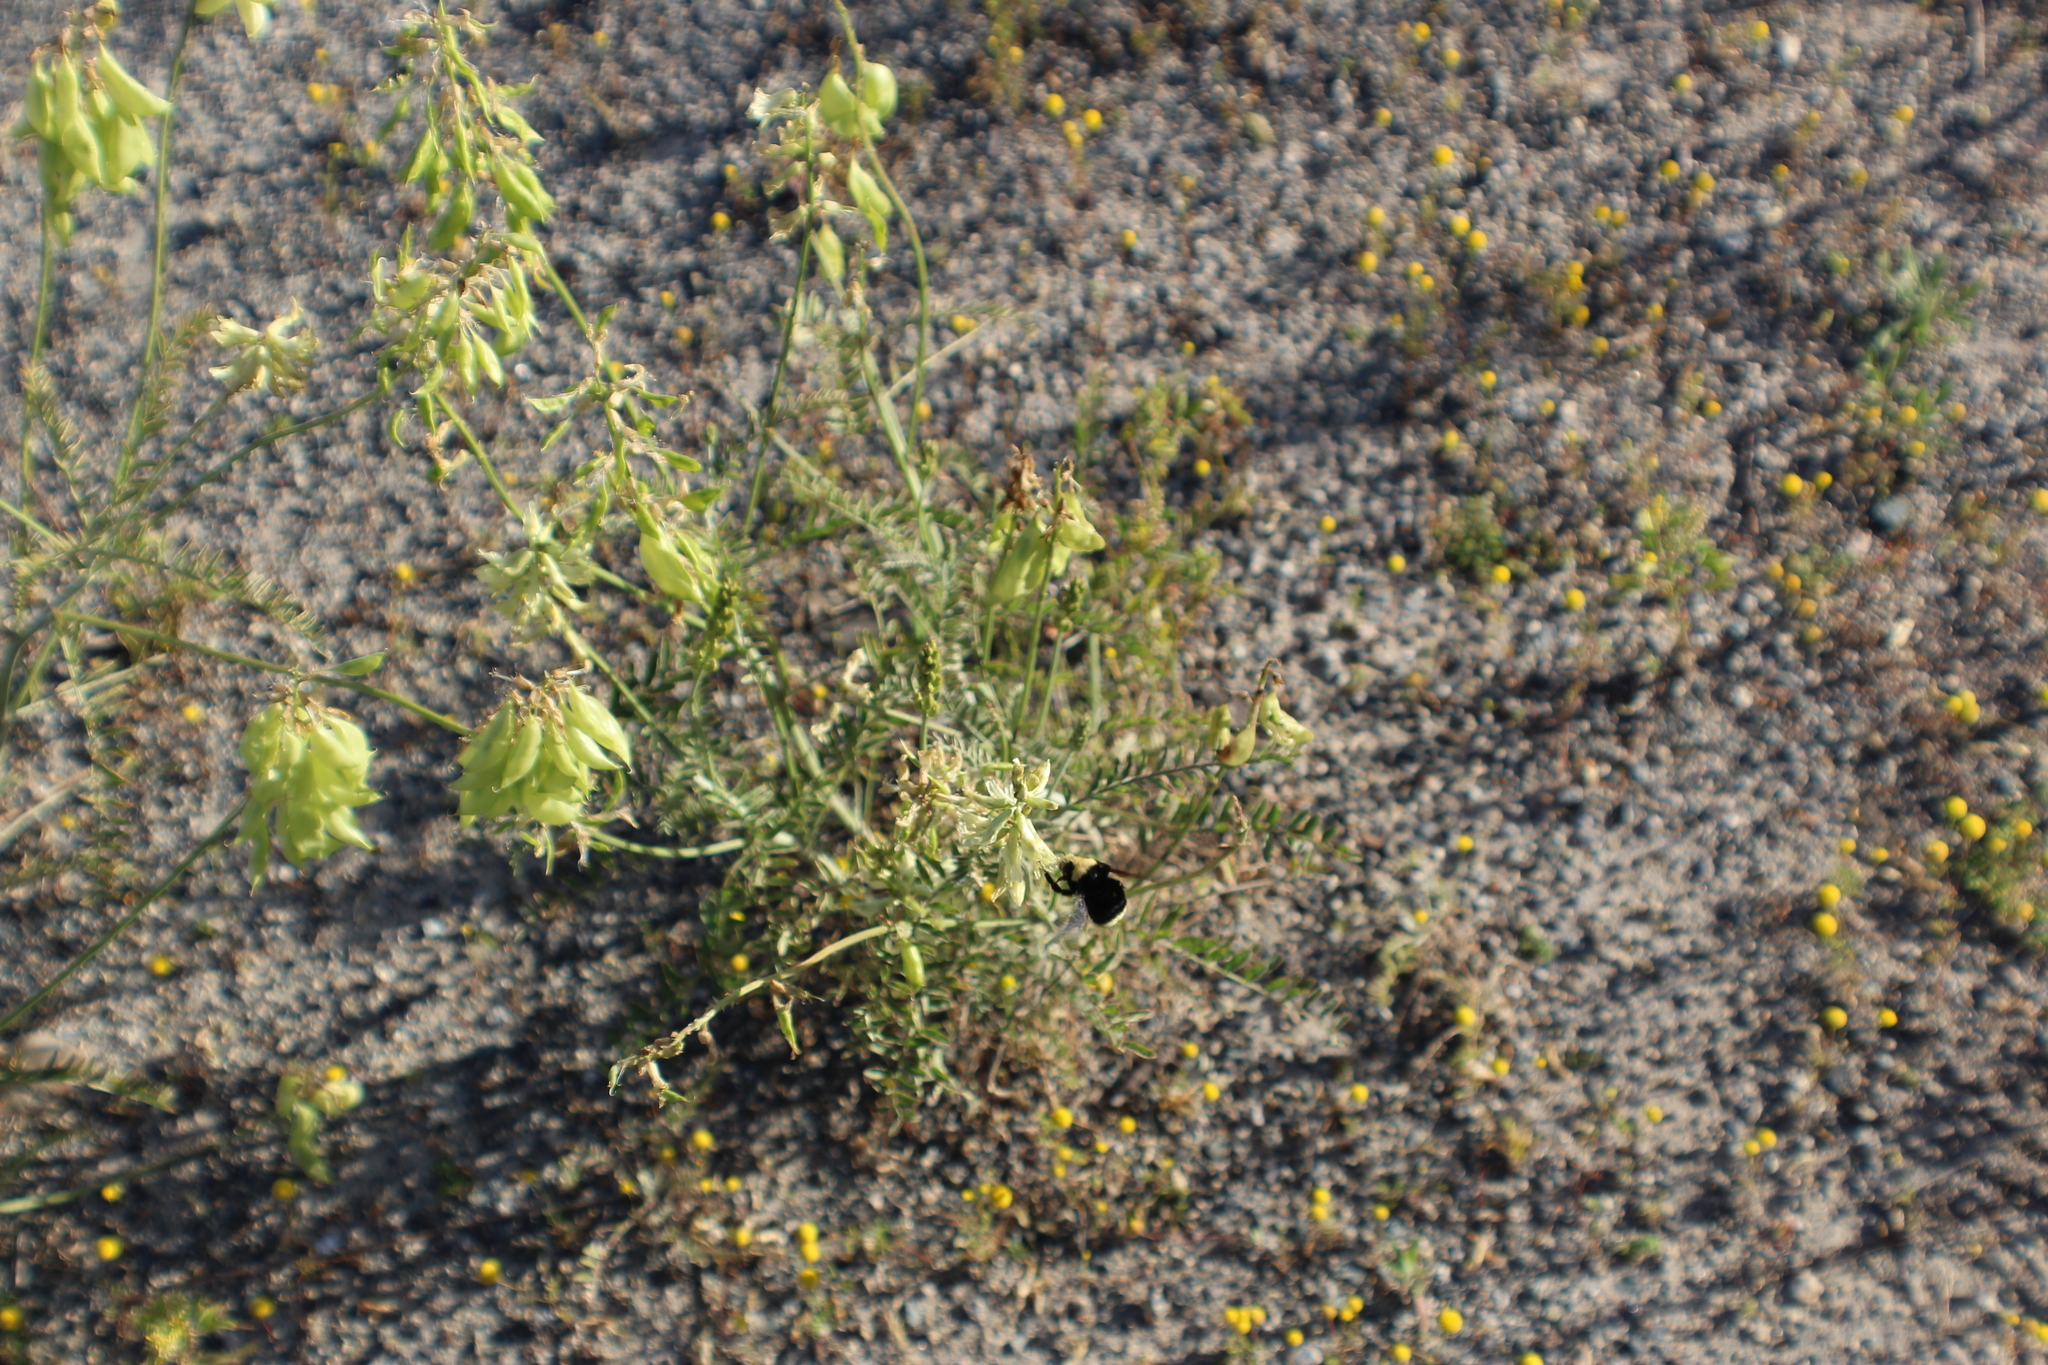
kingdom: Animalia
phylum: Arthropoda
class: Insecta
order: Hymenoptera
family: Apidae
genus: Bombus
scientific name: Bombus vosnesenskii
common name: Vosnesensky bumble bee
